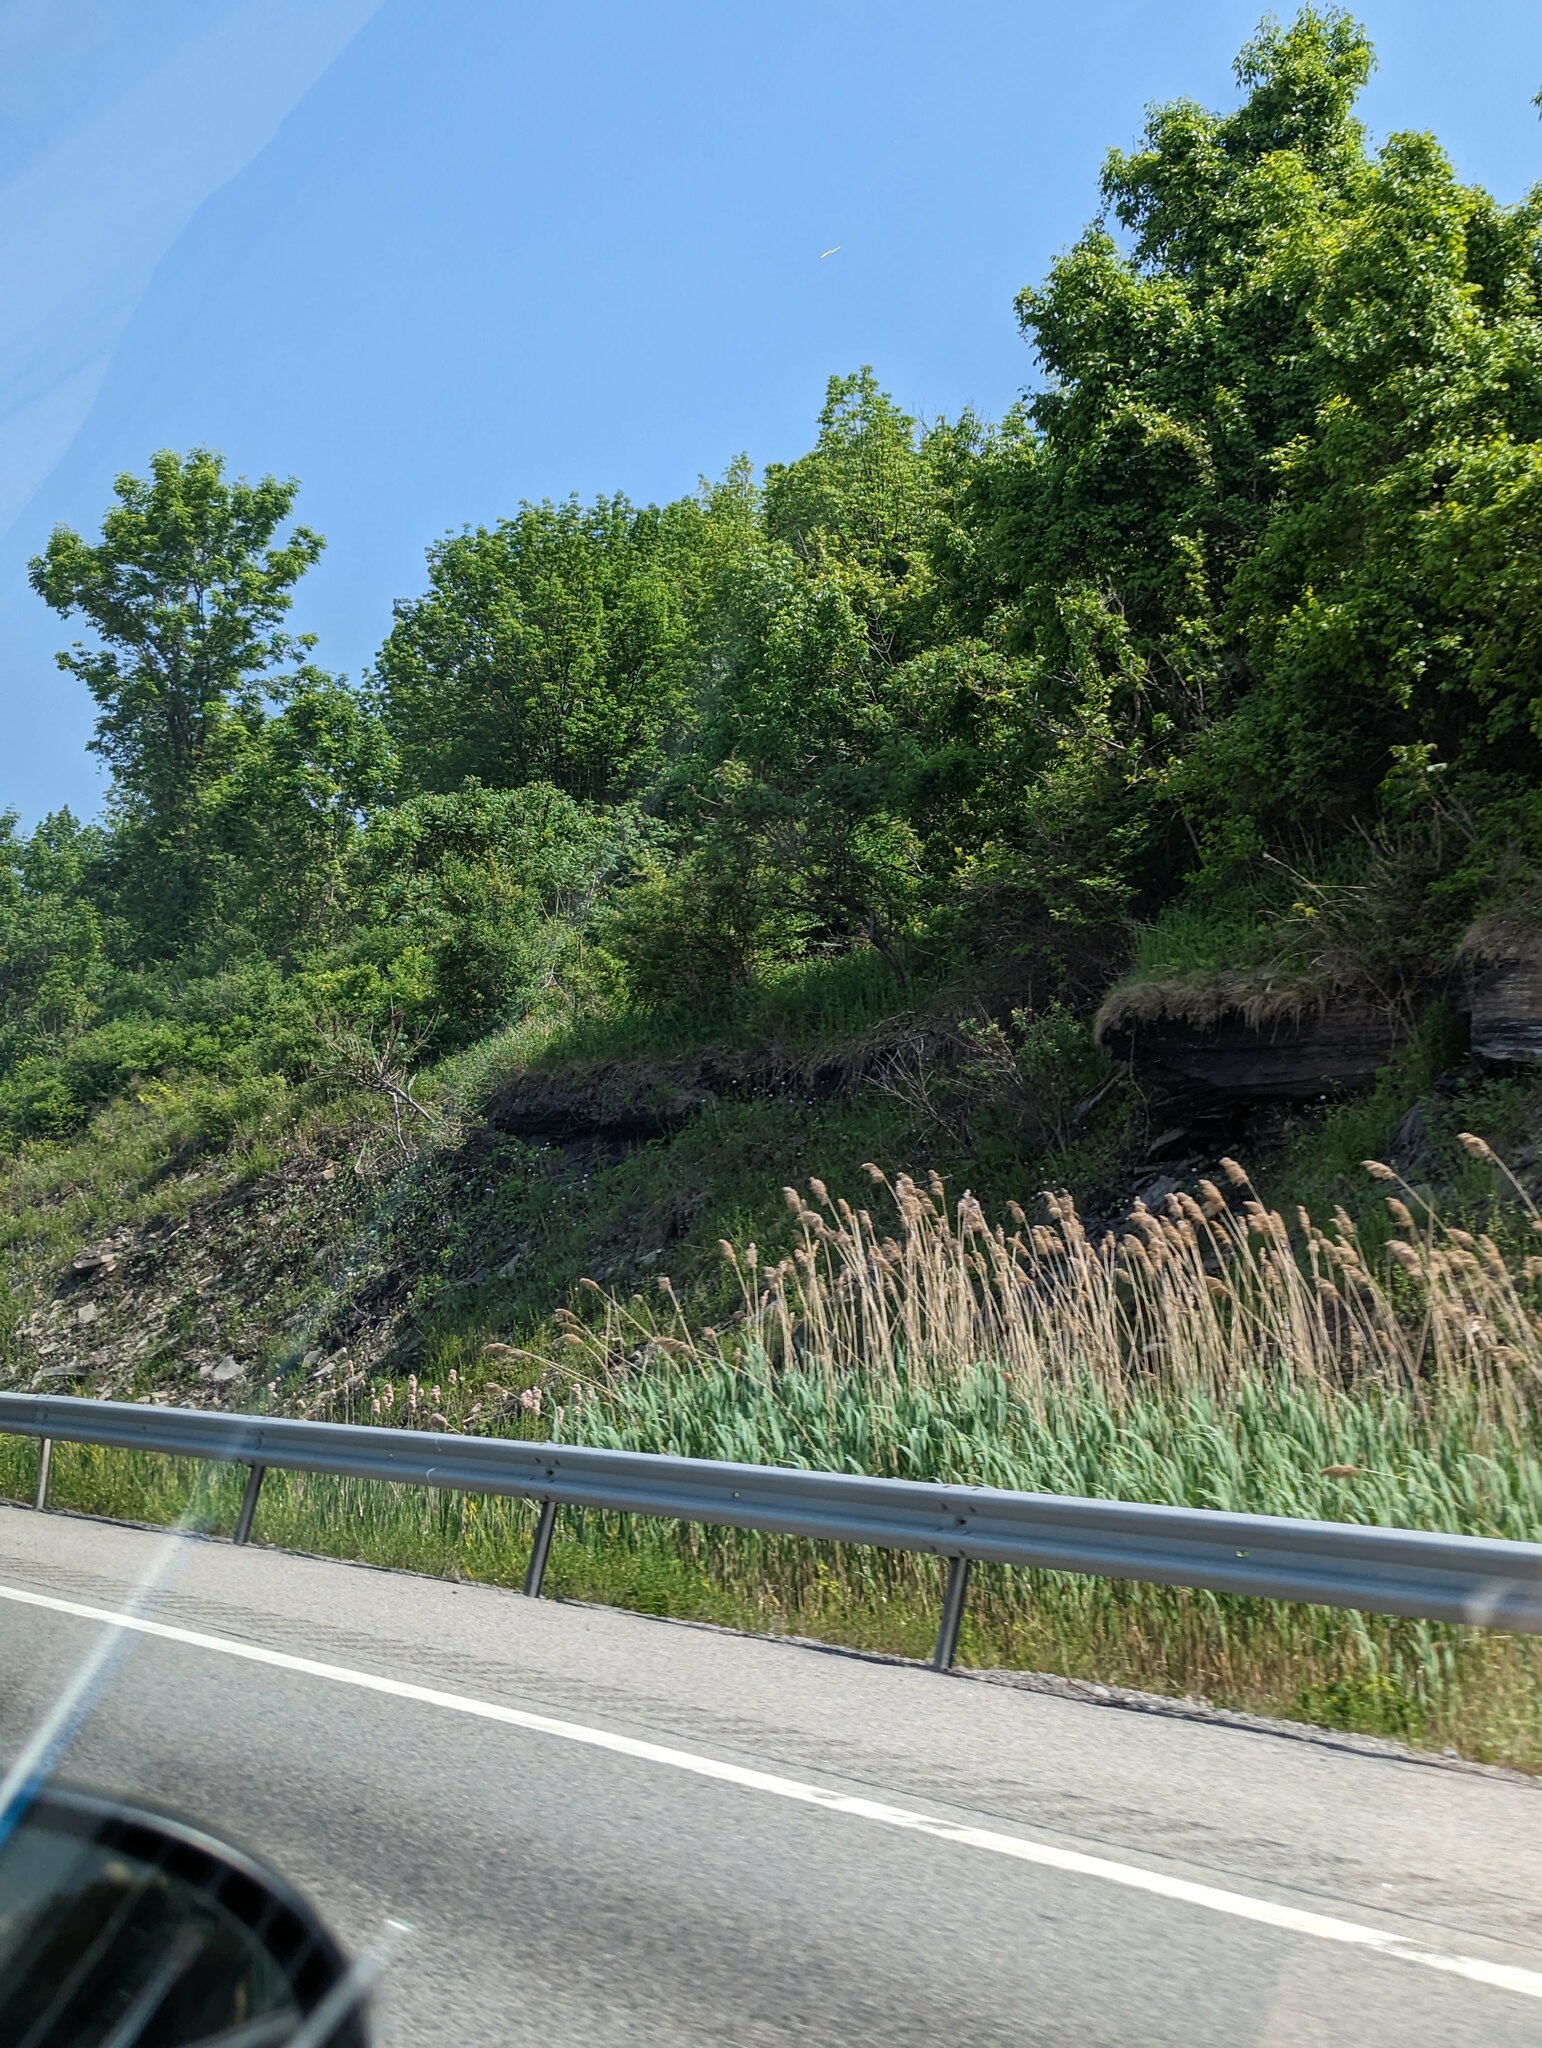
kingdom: Plantae
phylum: Tracheophyta
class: Liliopsida
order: Poales
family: Poaceae
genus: Phragmites
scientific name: Phragmites australis
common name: Common reed
